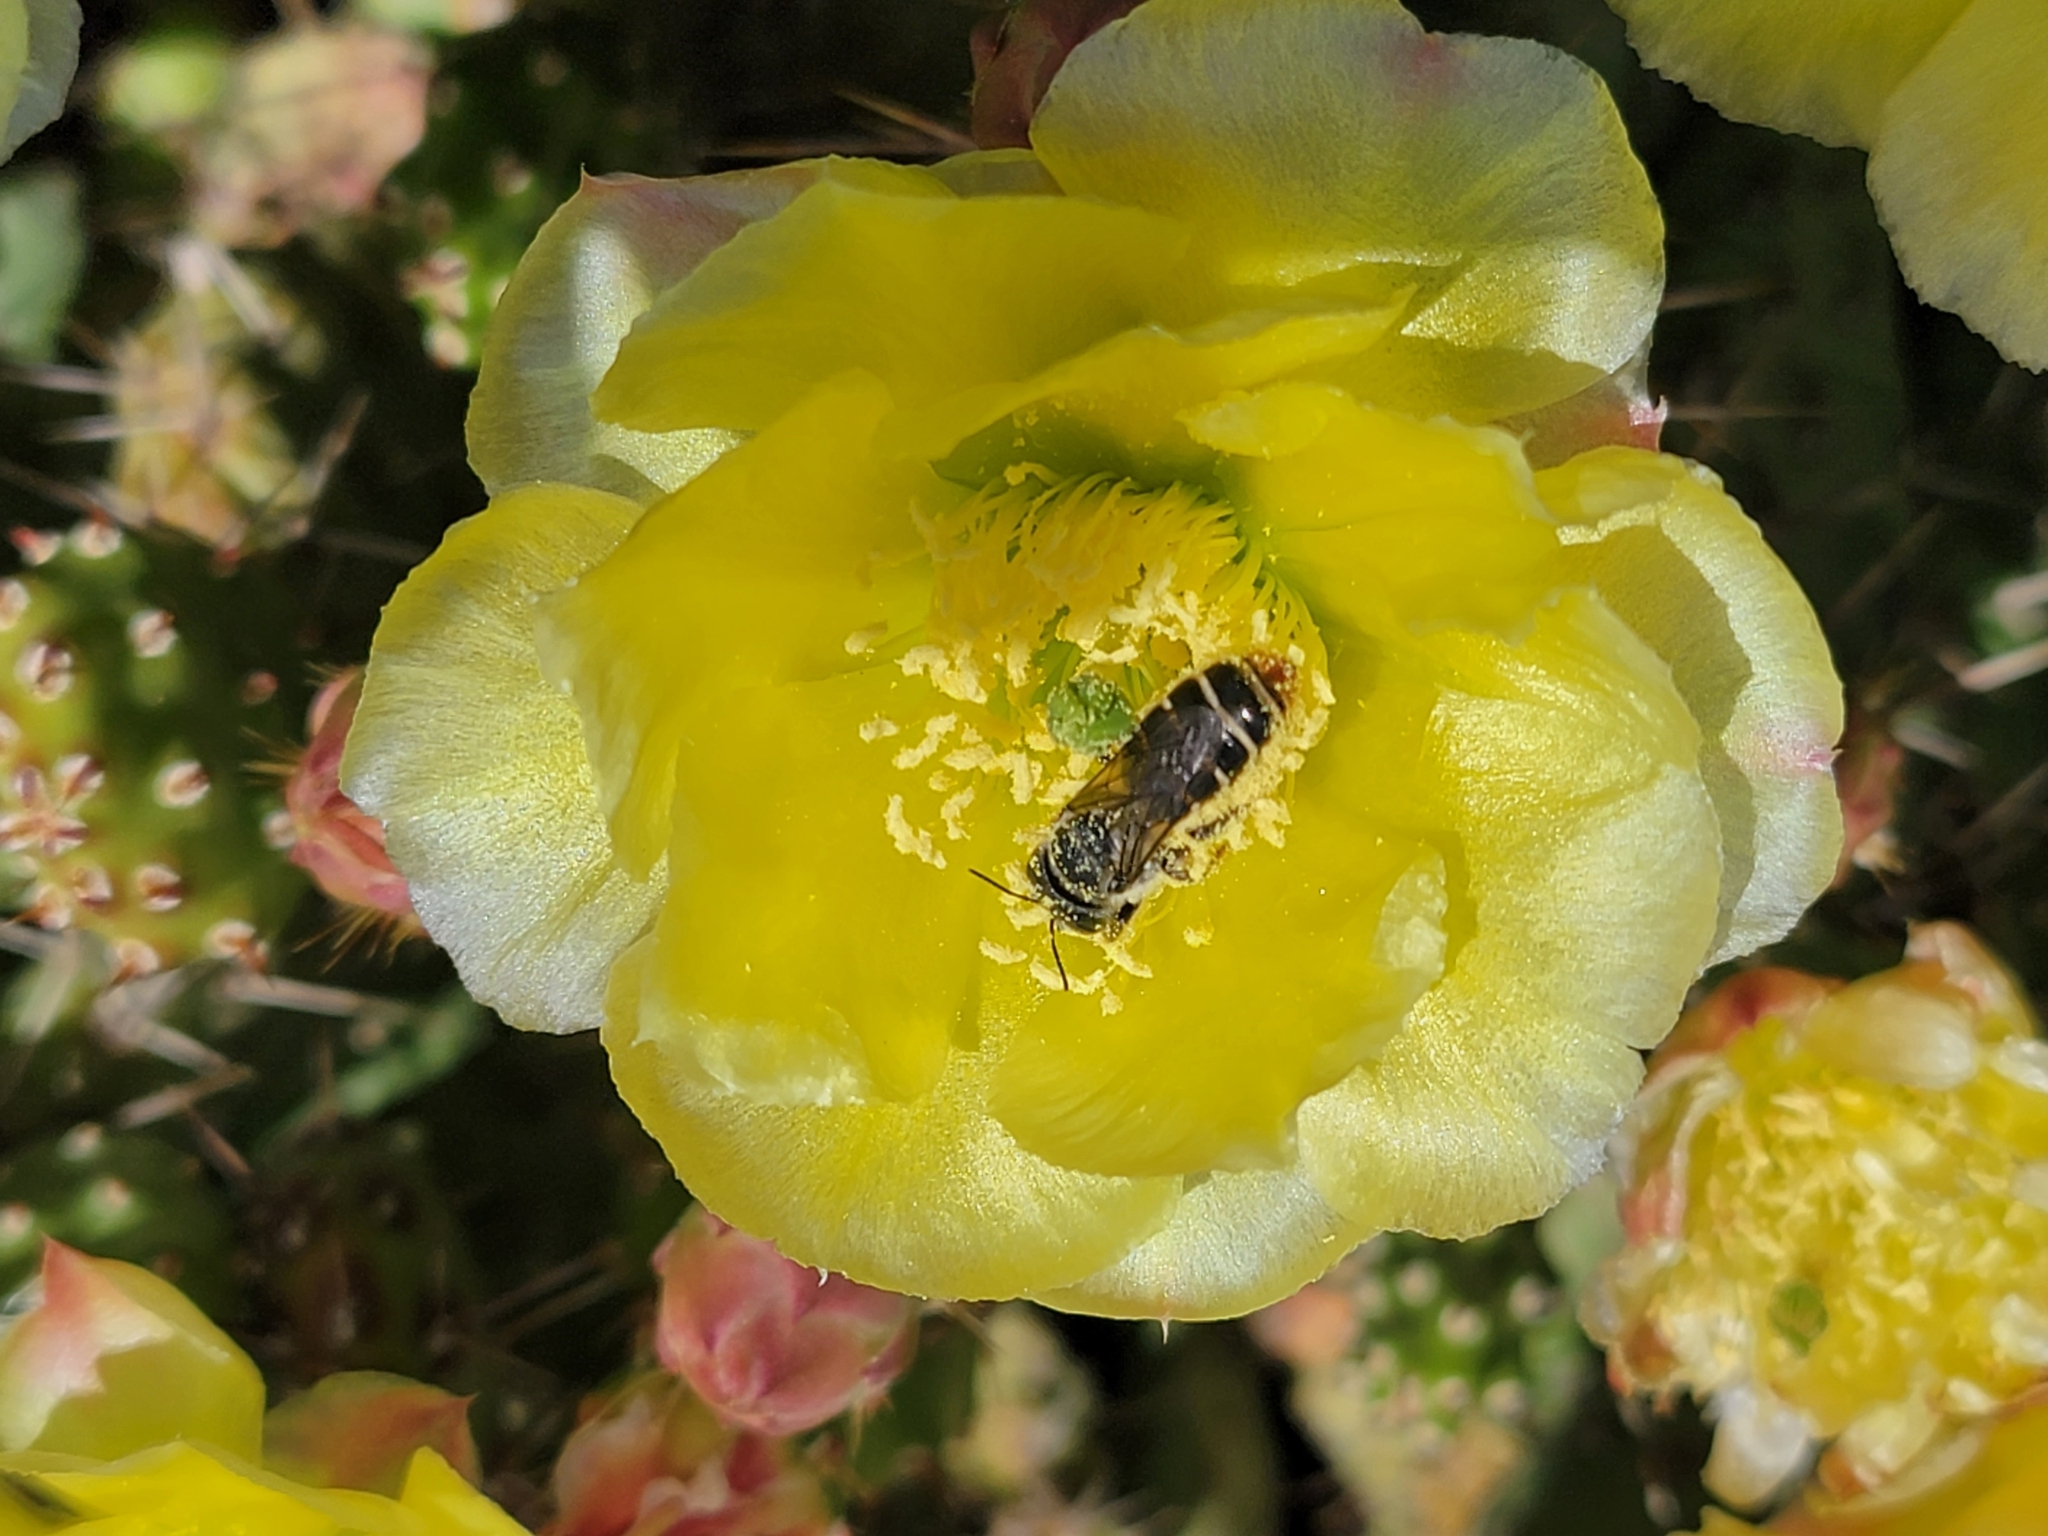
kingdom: Animalia
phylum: Arthropoda
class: Insecta
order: Hymenoptera
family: Megachilidae
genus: Lithurgopsis
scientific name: Lithurgopsis apicalis
